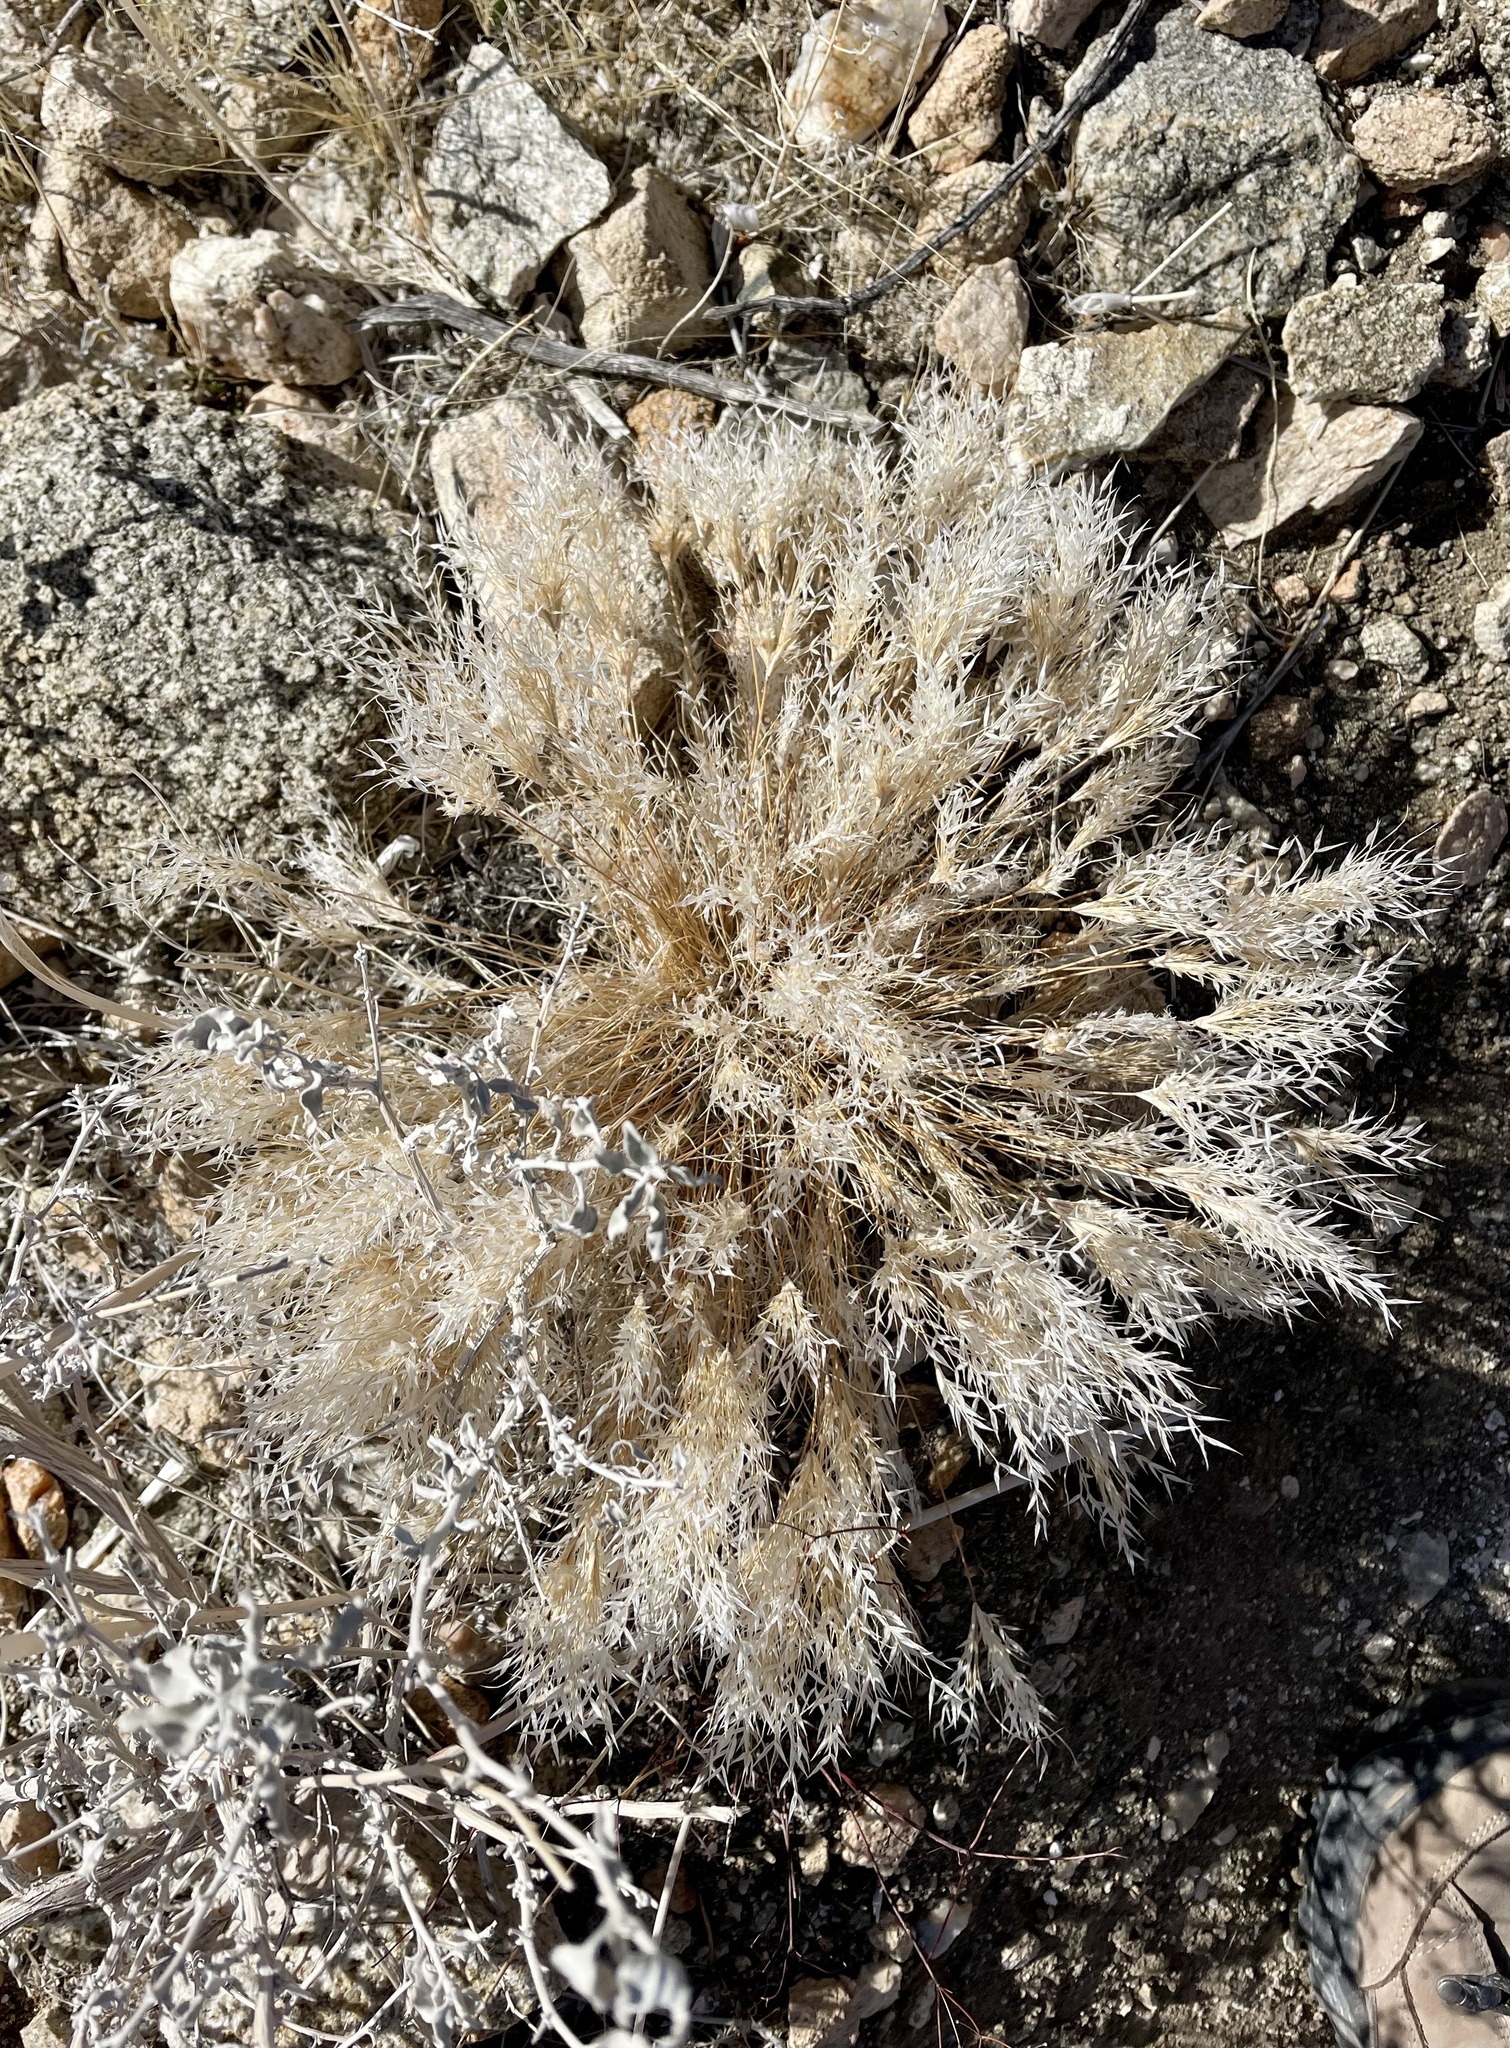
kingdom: Plantae
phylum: Tracheophyta
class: Liliopsida
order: Poales
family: Poaceae
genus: Dasyochloa
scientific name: Dasyochloa pulchella
